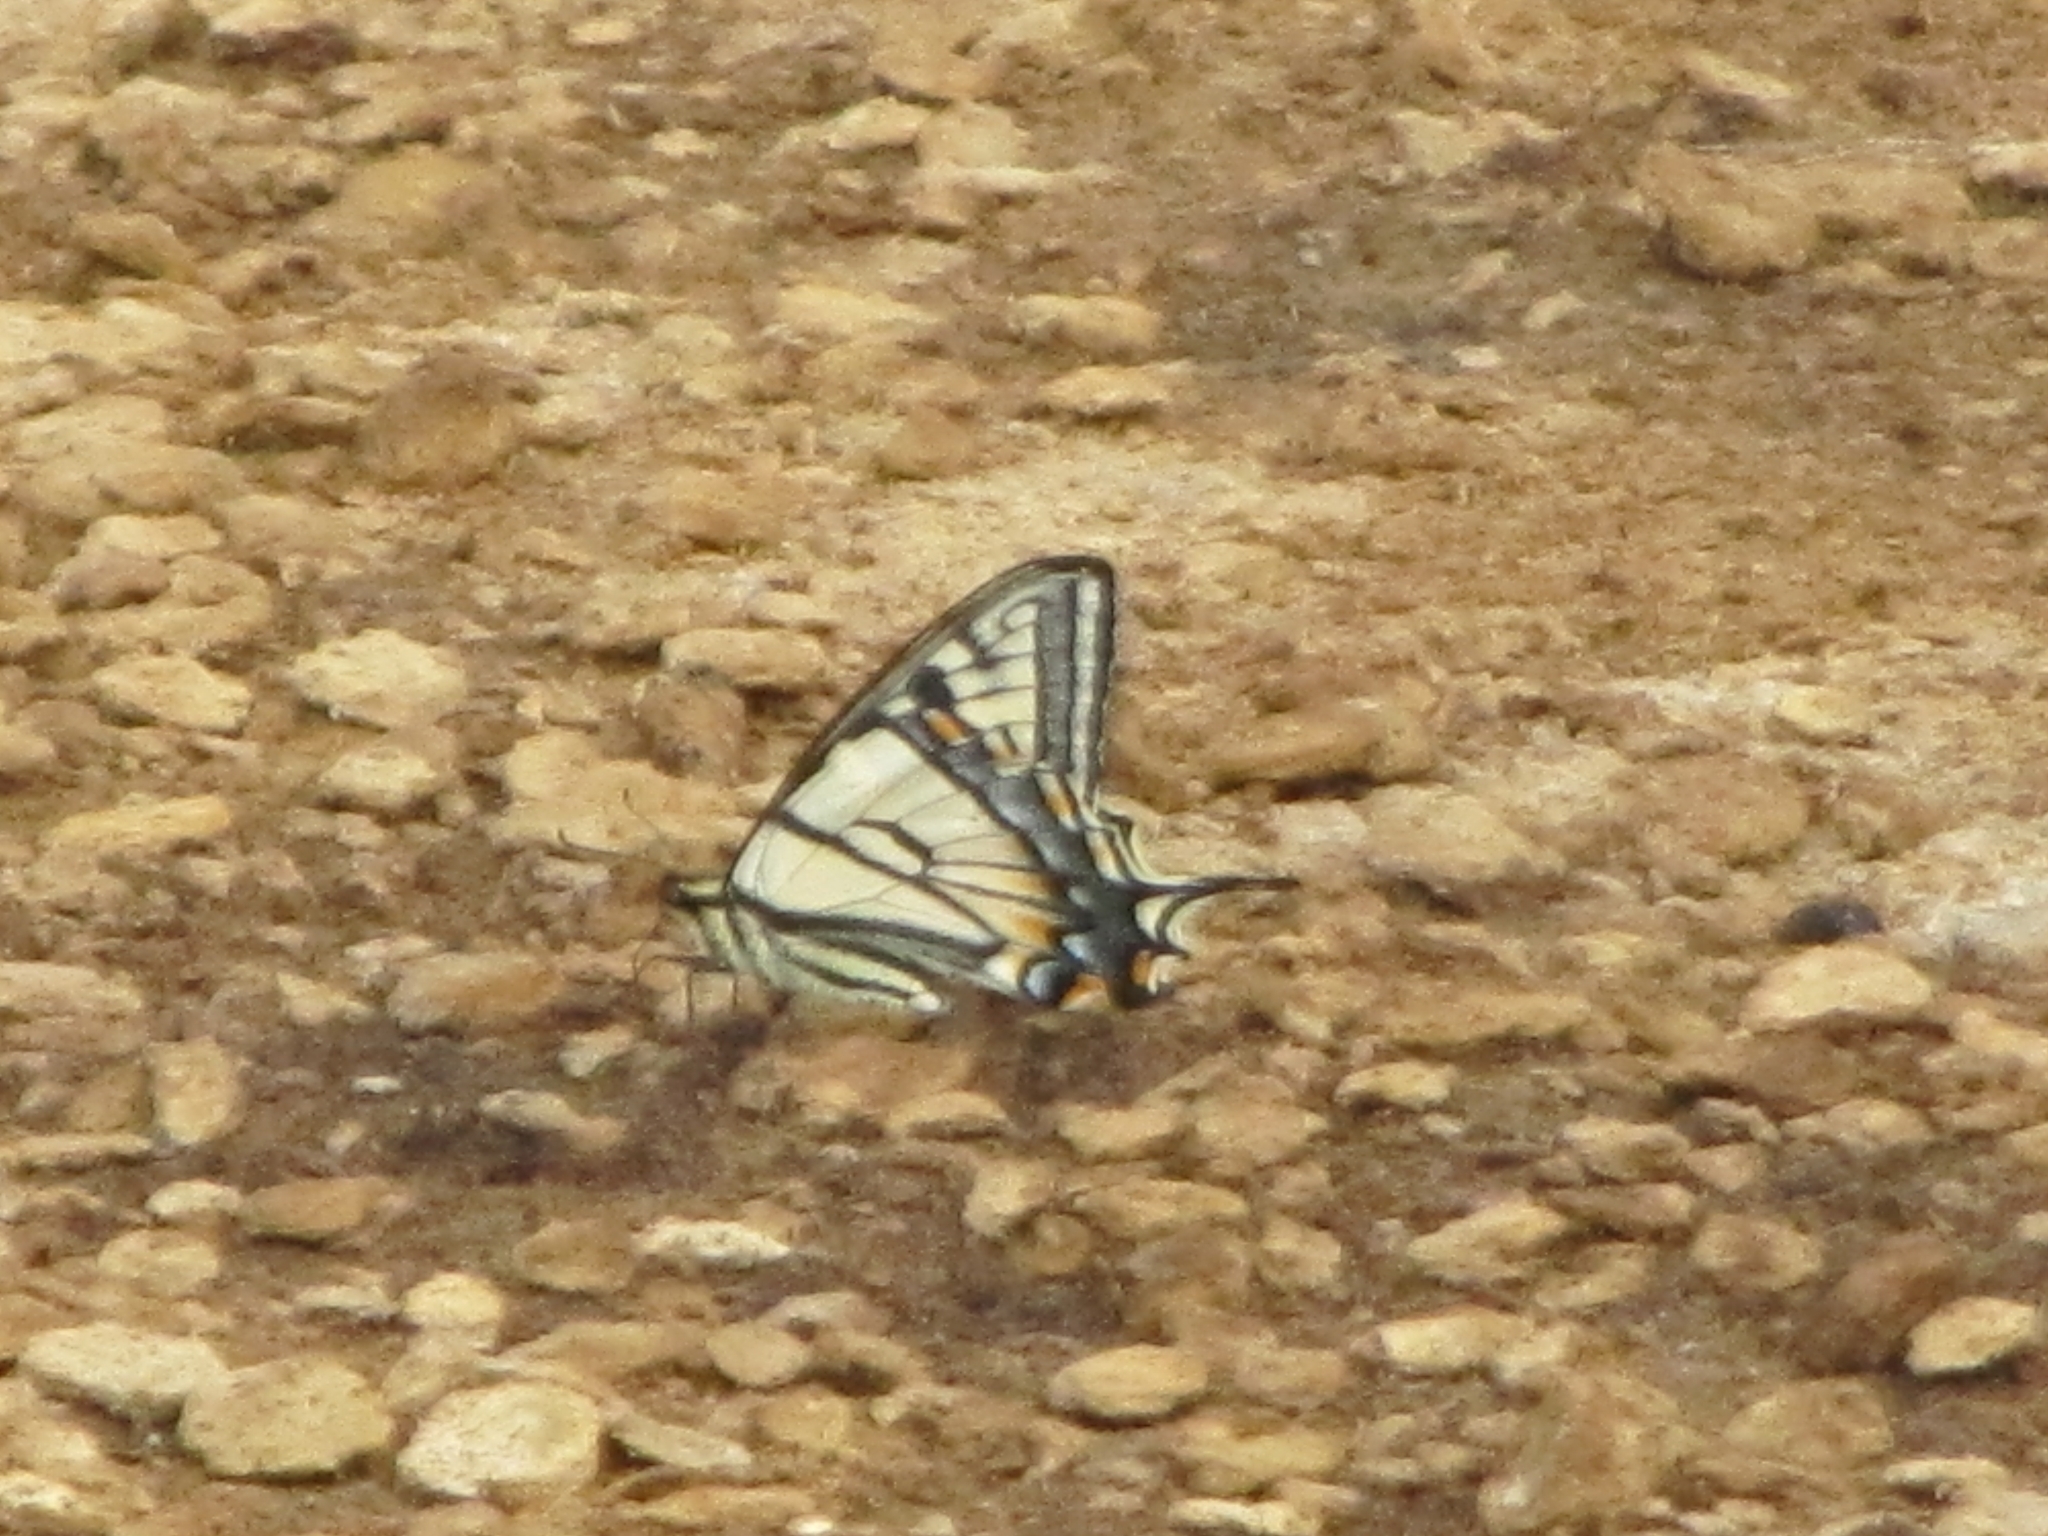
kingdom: Animalia
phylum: Arthropoda
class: Insecta
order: Lepidoptera
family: Papilionidae
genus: Papilio
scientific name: Papilio canadensis
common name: Canadian tiger swallowtail
